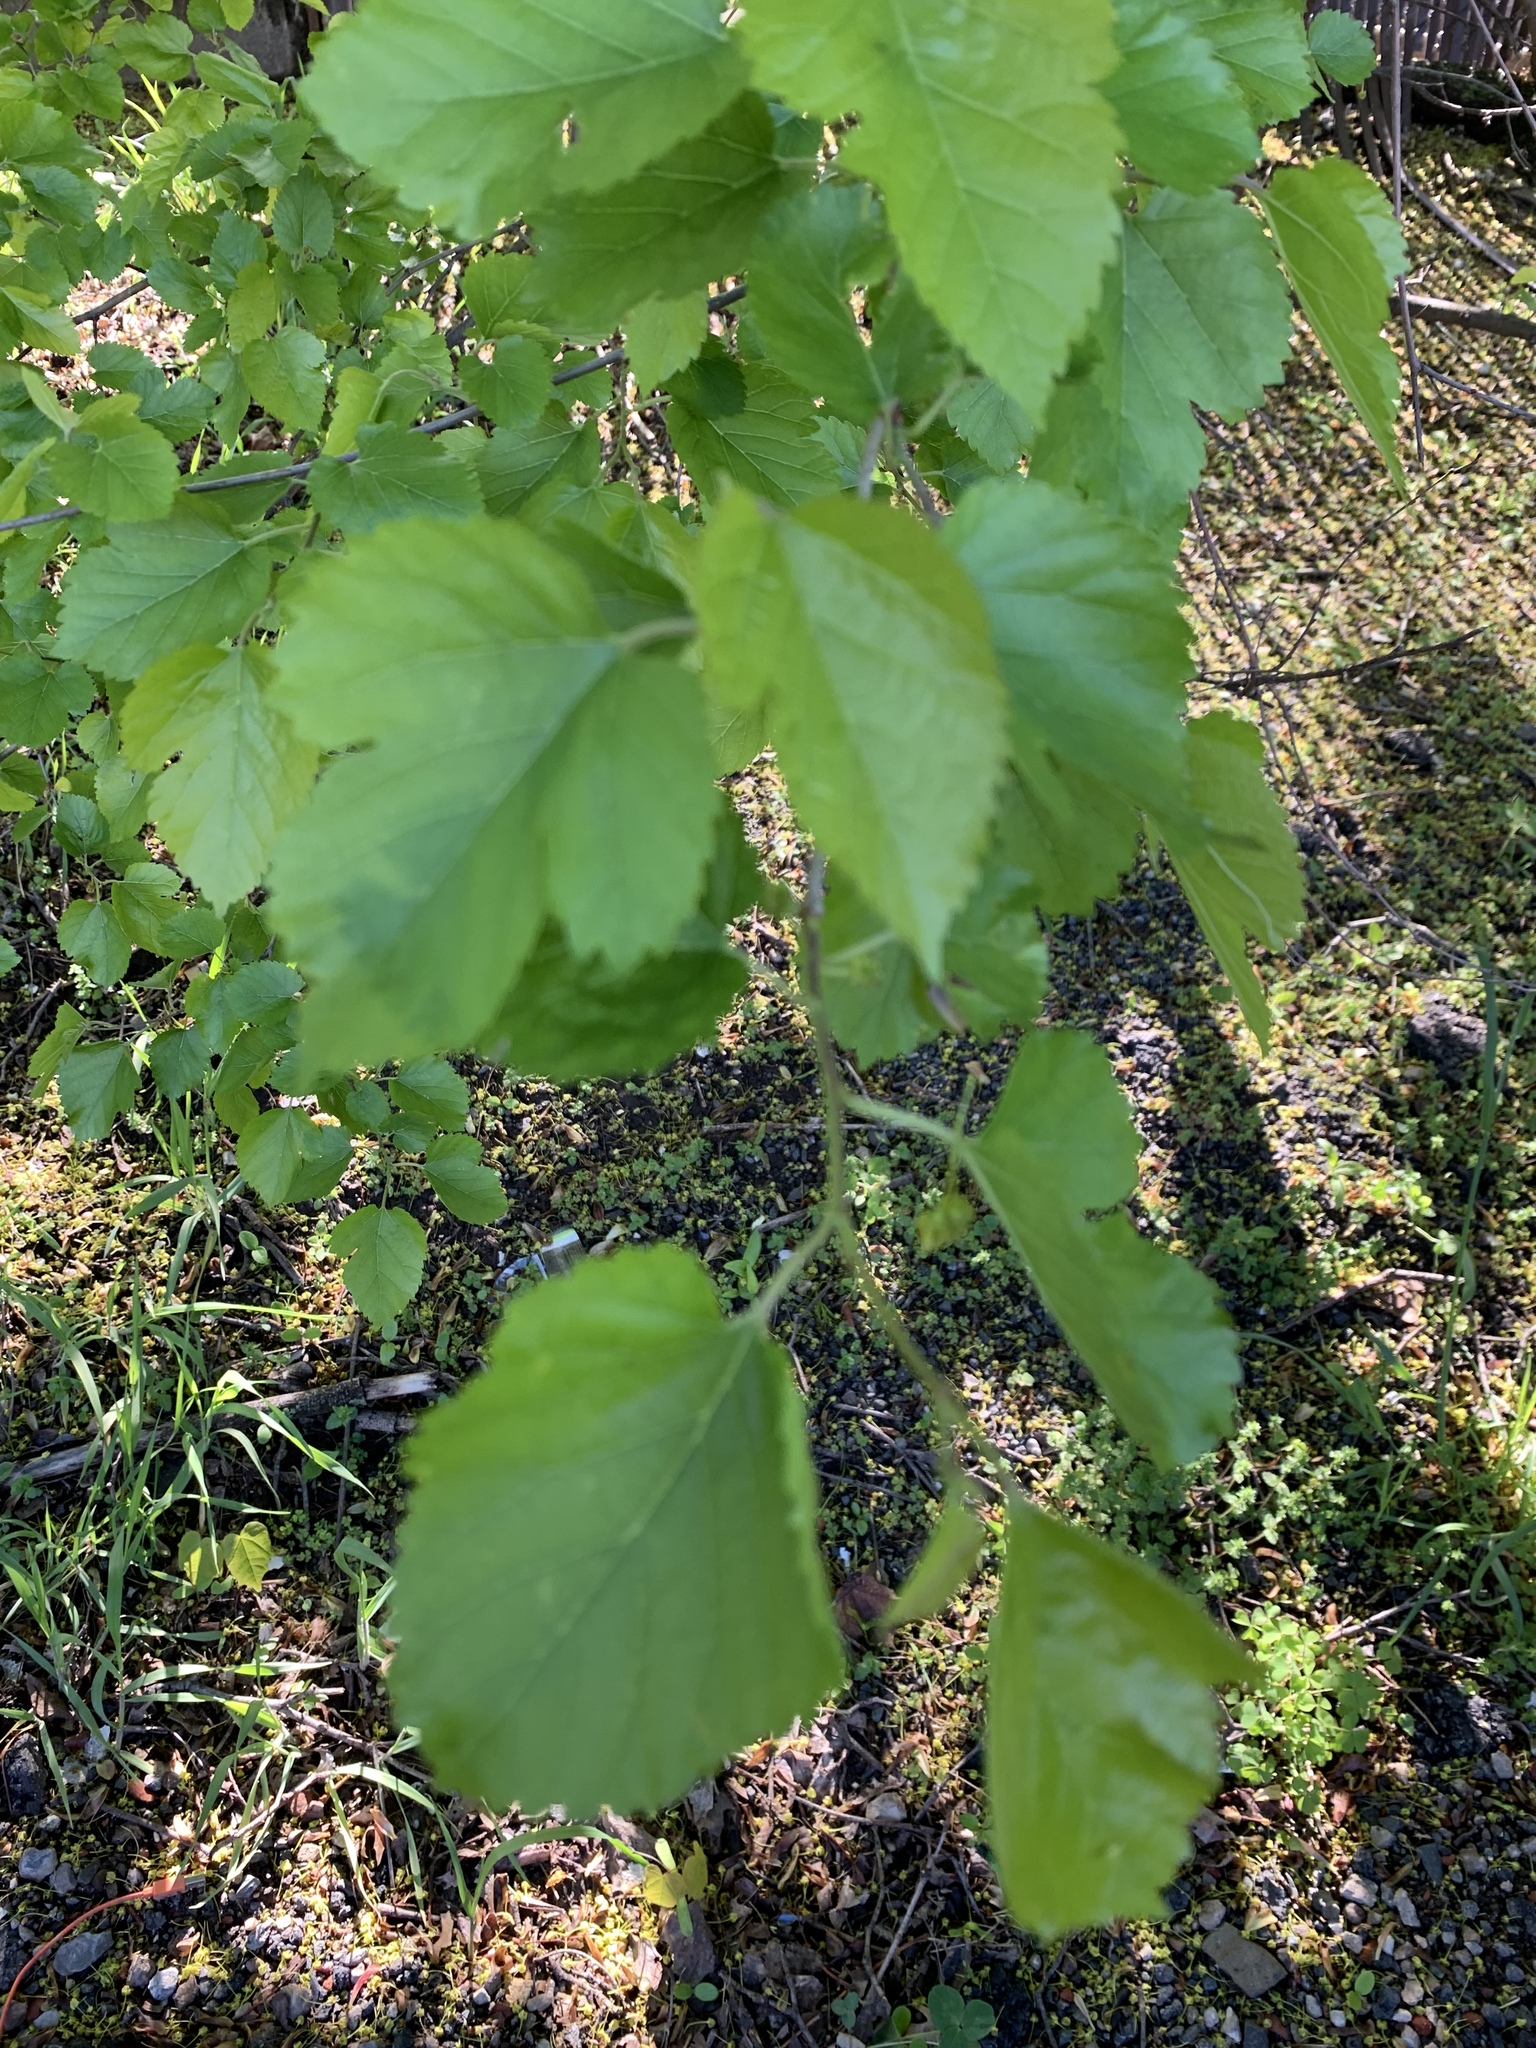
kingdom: Plantae
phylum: Tracheophyta
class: Magnoliopsida
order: Rosales
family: Moraceae
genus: Morus
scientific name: Morus alba
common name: White mulberry
